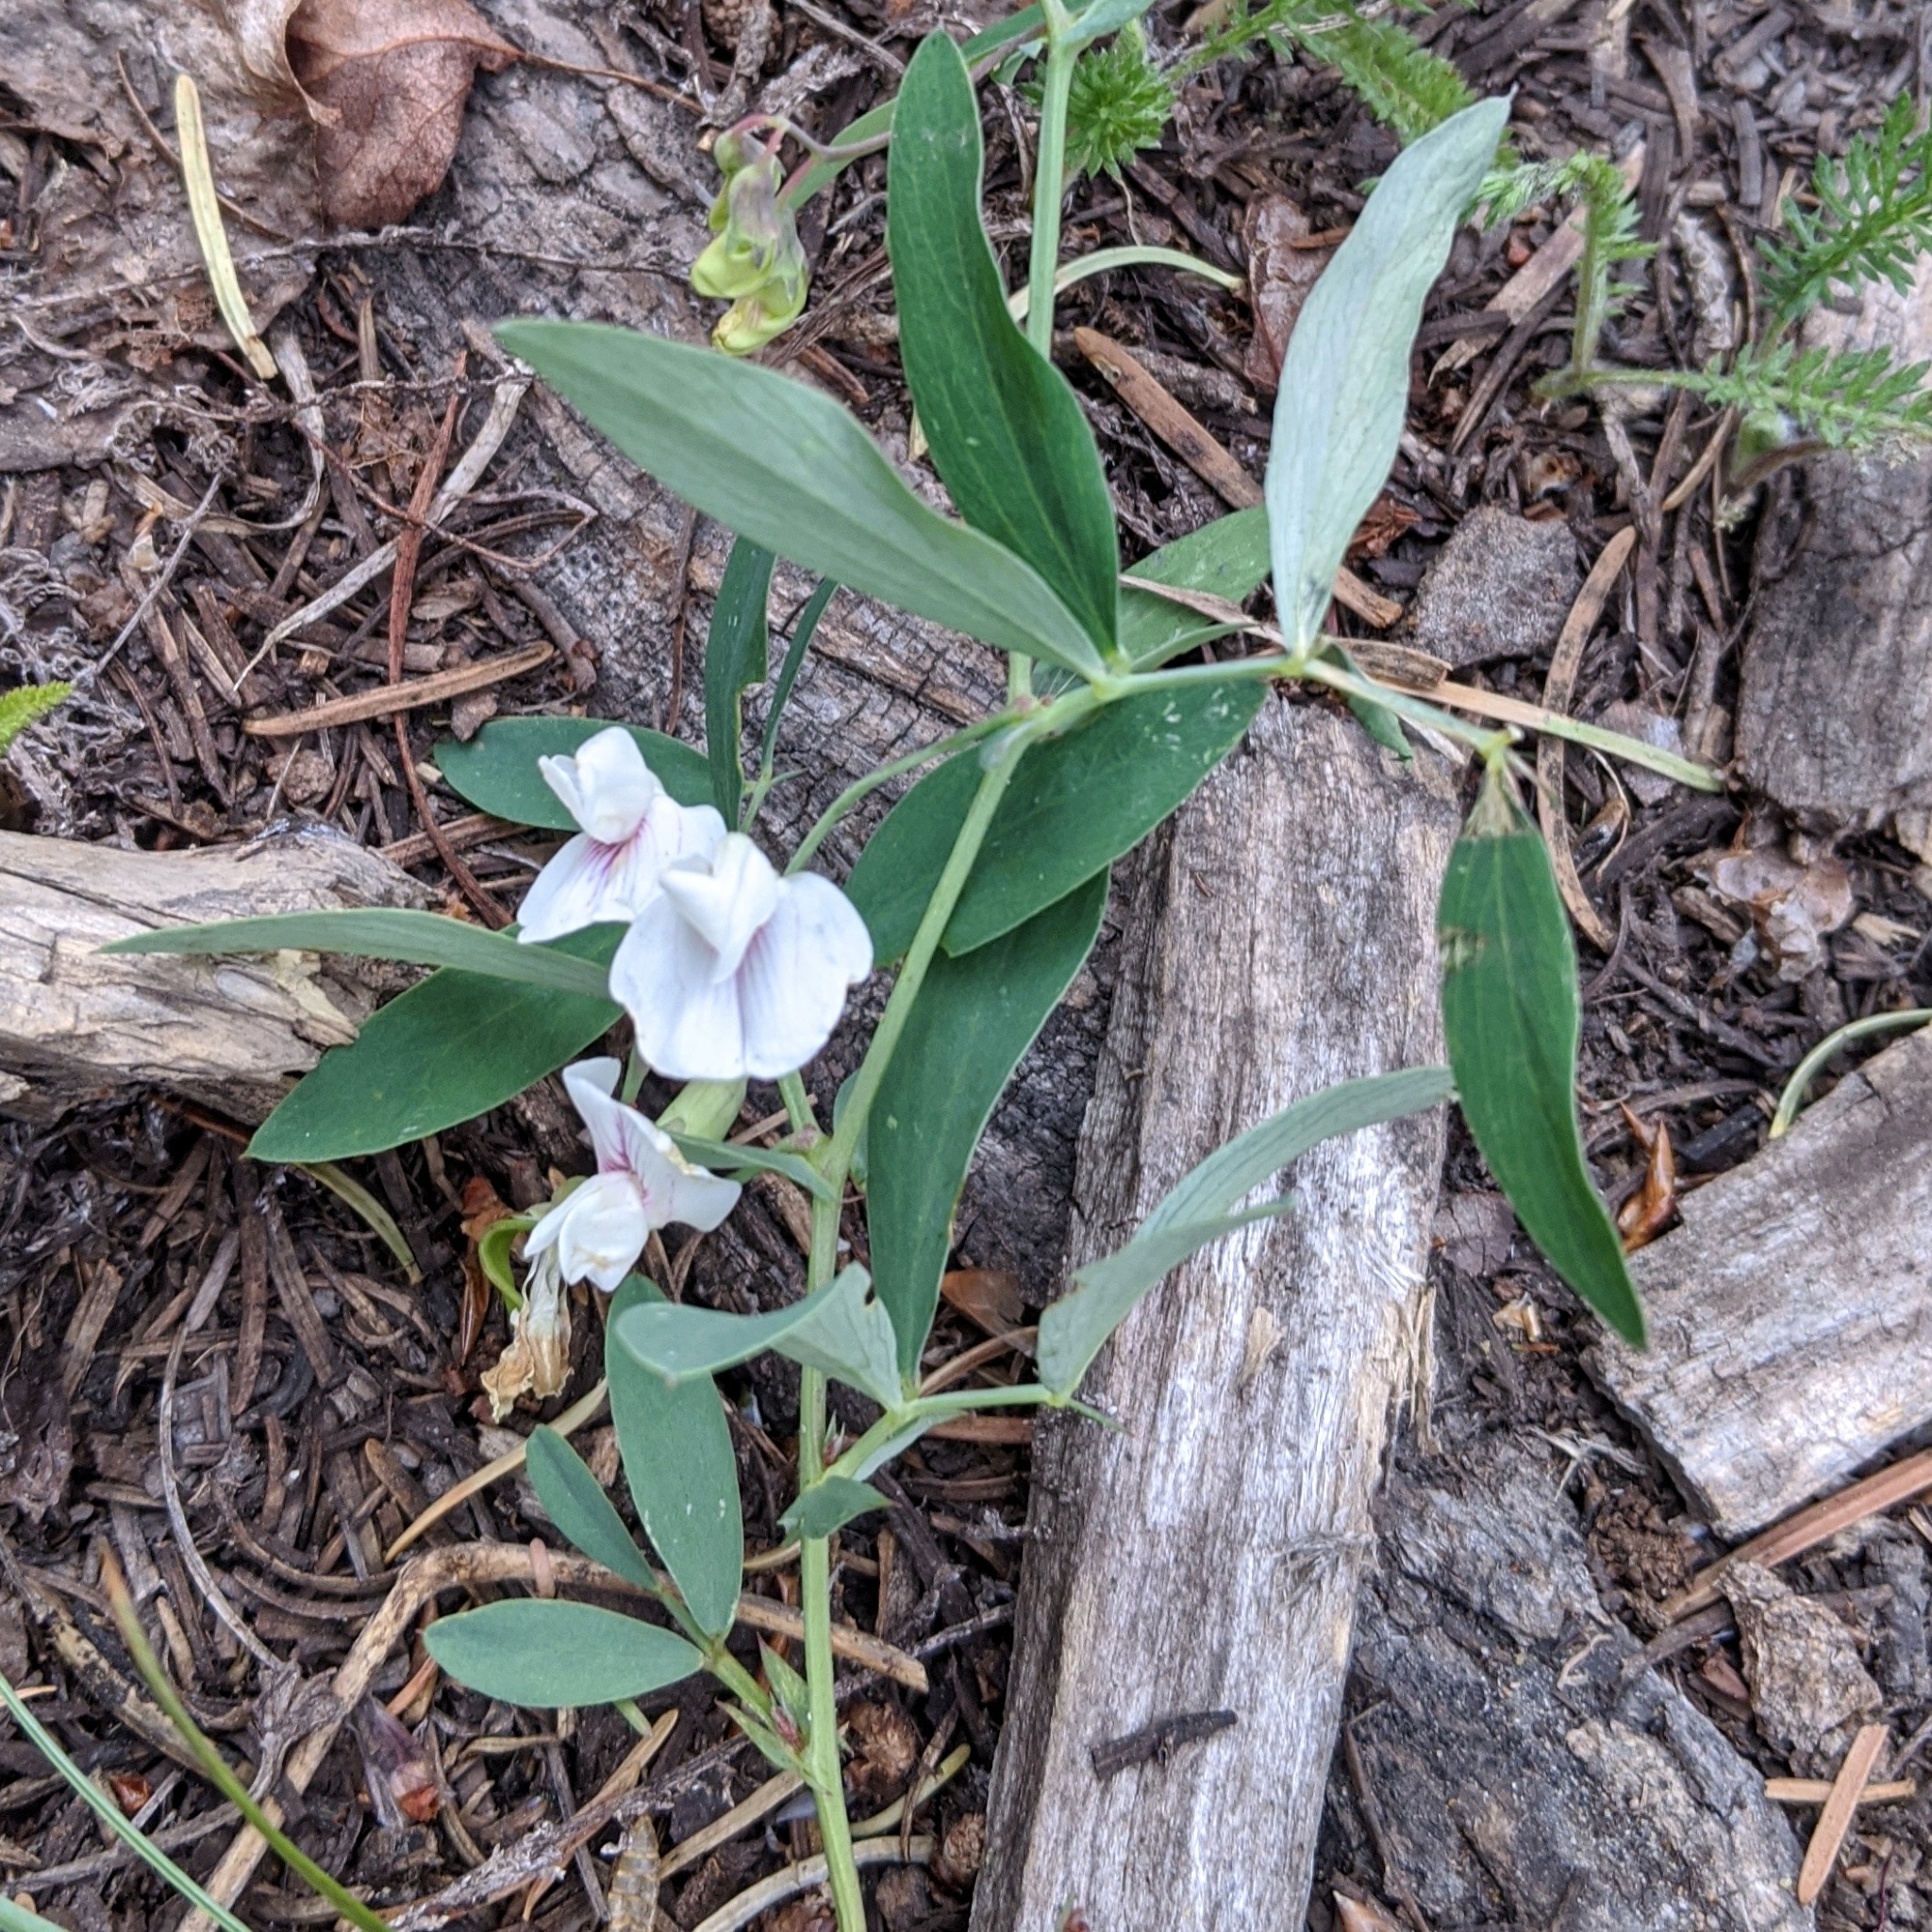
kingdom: Plantae
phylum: Tracheophyta
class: Magnoliopsida
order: Fabales
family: Fabaceae
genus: Lathyrus
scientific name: Lathyrus lanszwertii
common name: Lanszwert's vetchling
